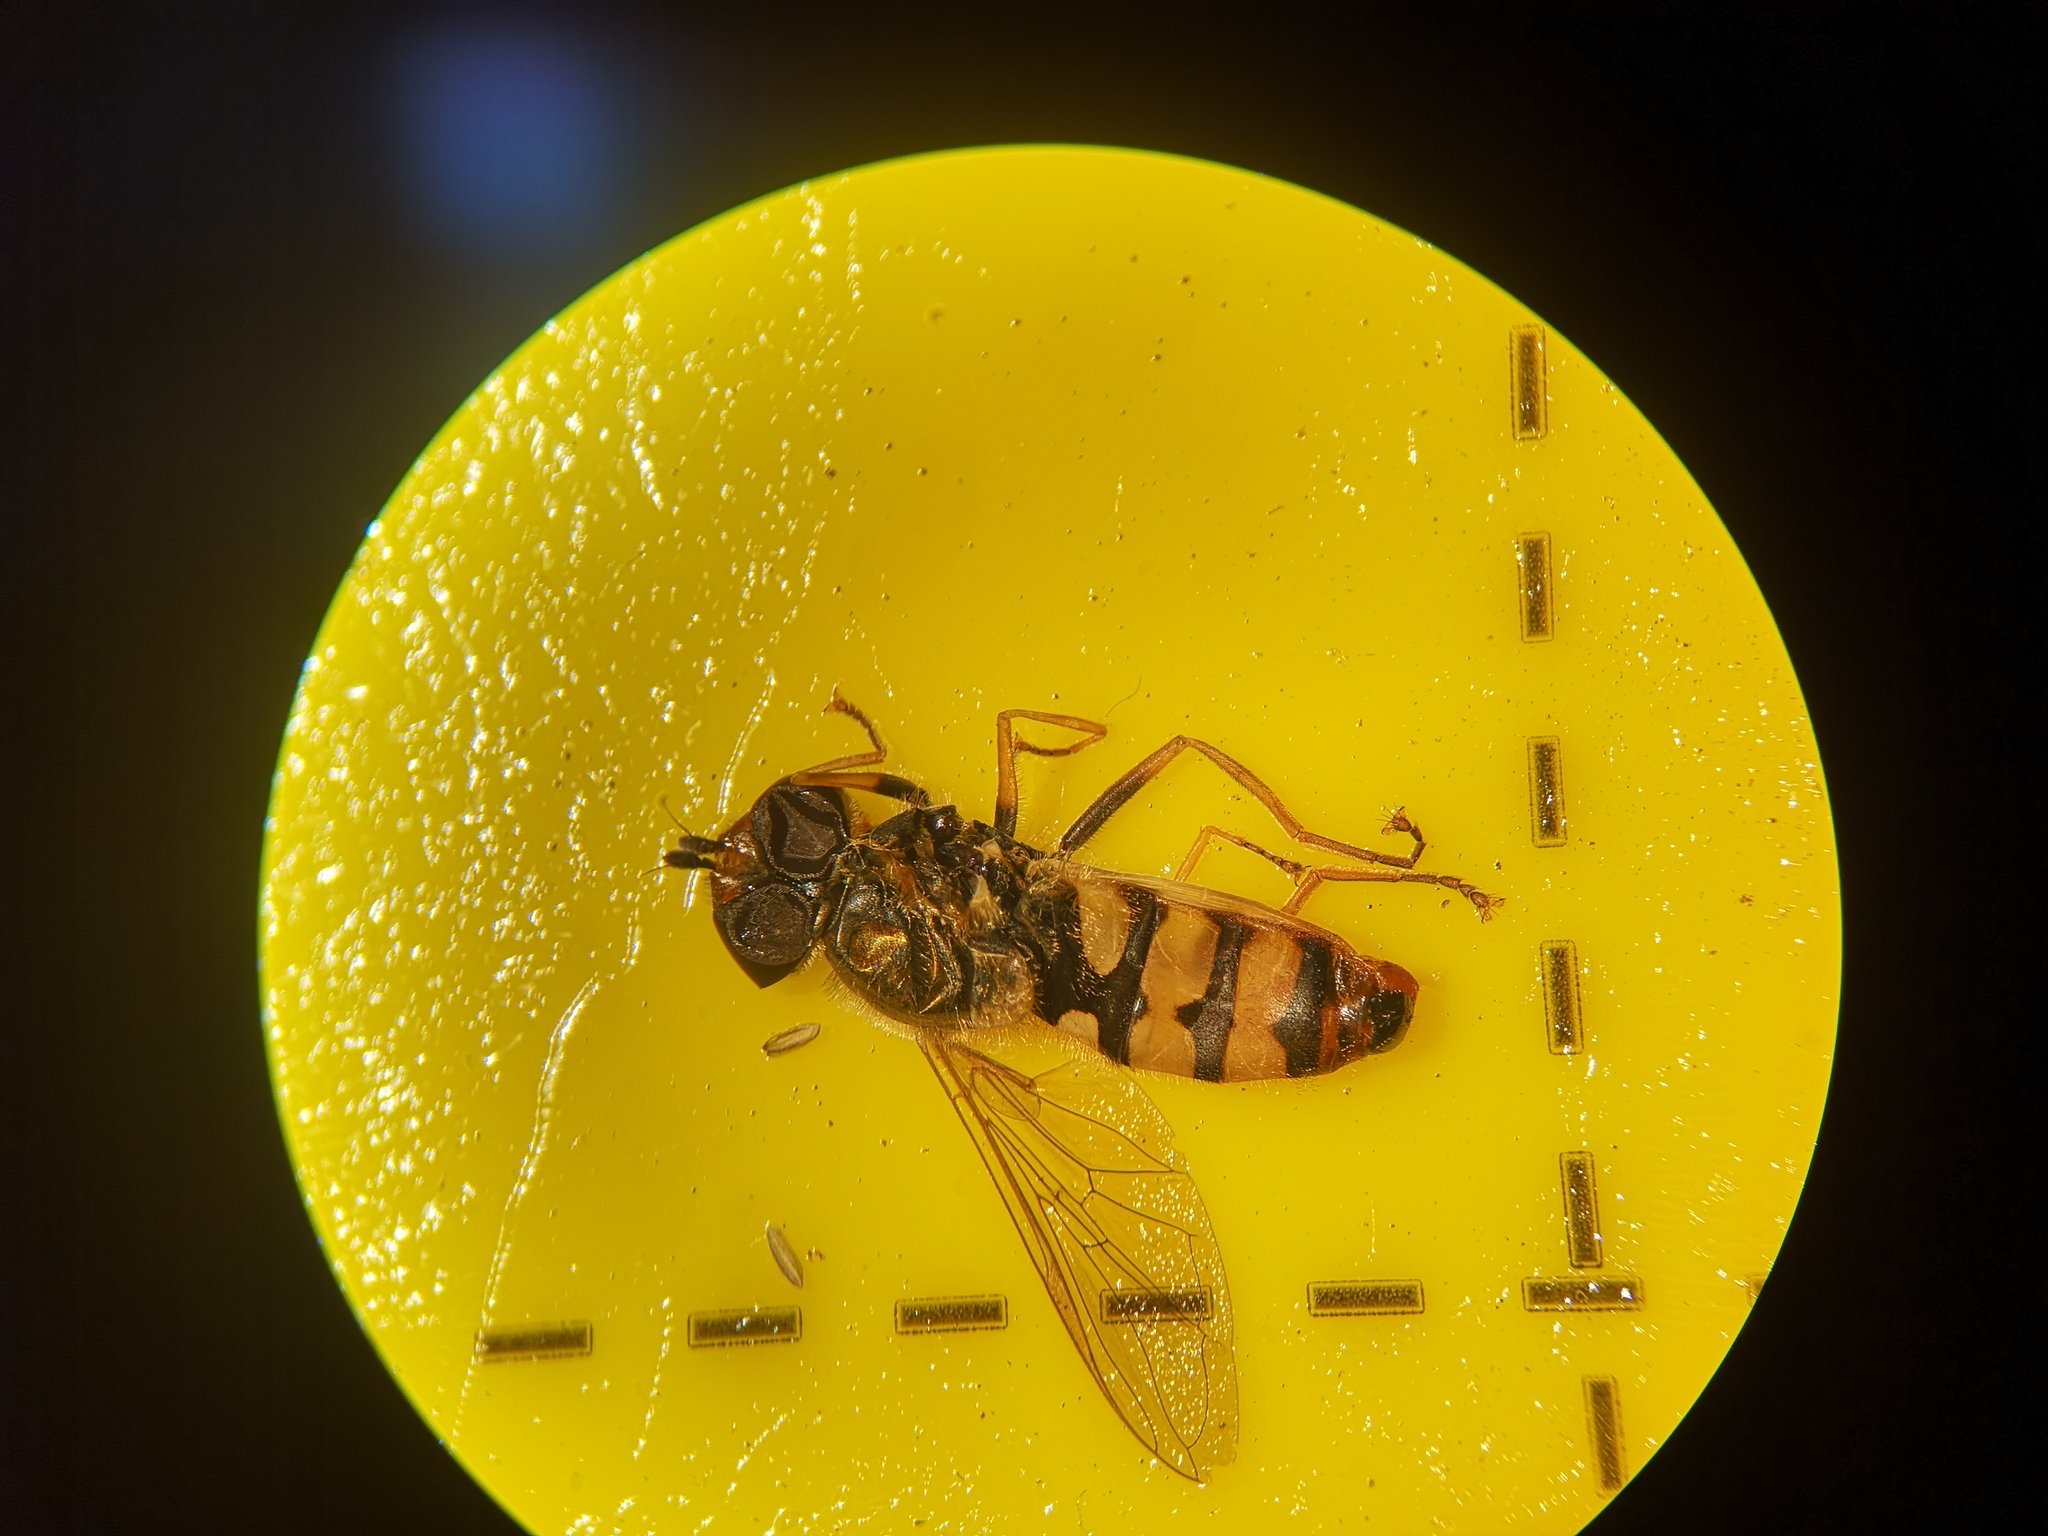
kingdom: Animalia
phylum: Arthropoda
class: Insecta
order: Diptera
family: Syrphidae
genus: Eupeodes
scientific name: Eupeodes corollae
